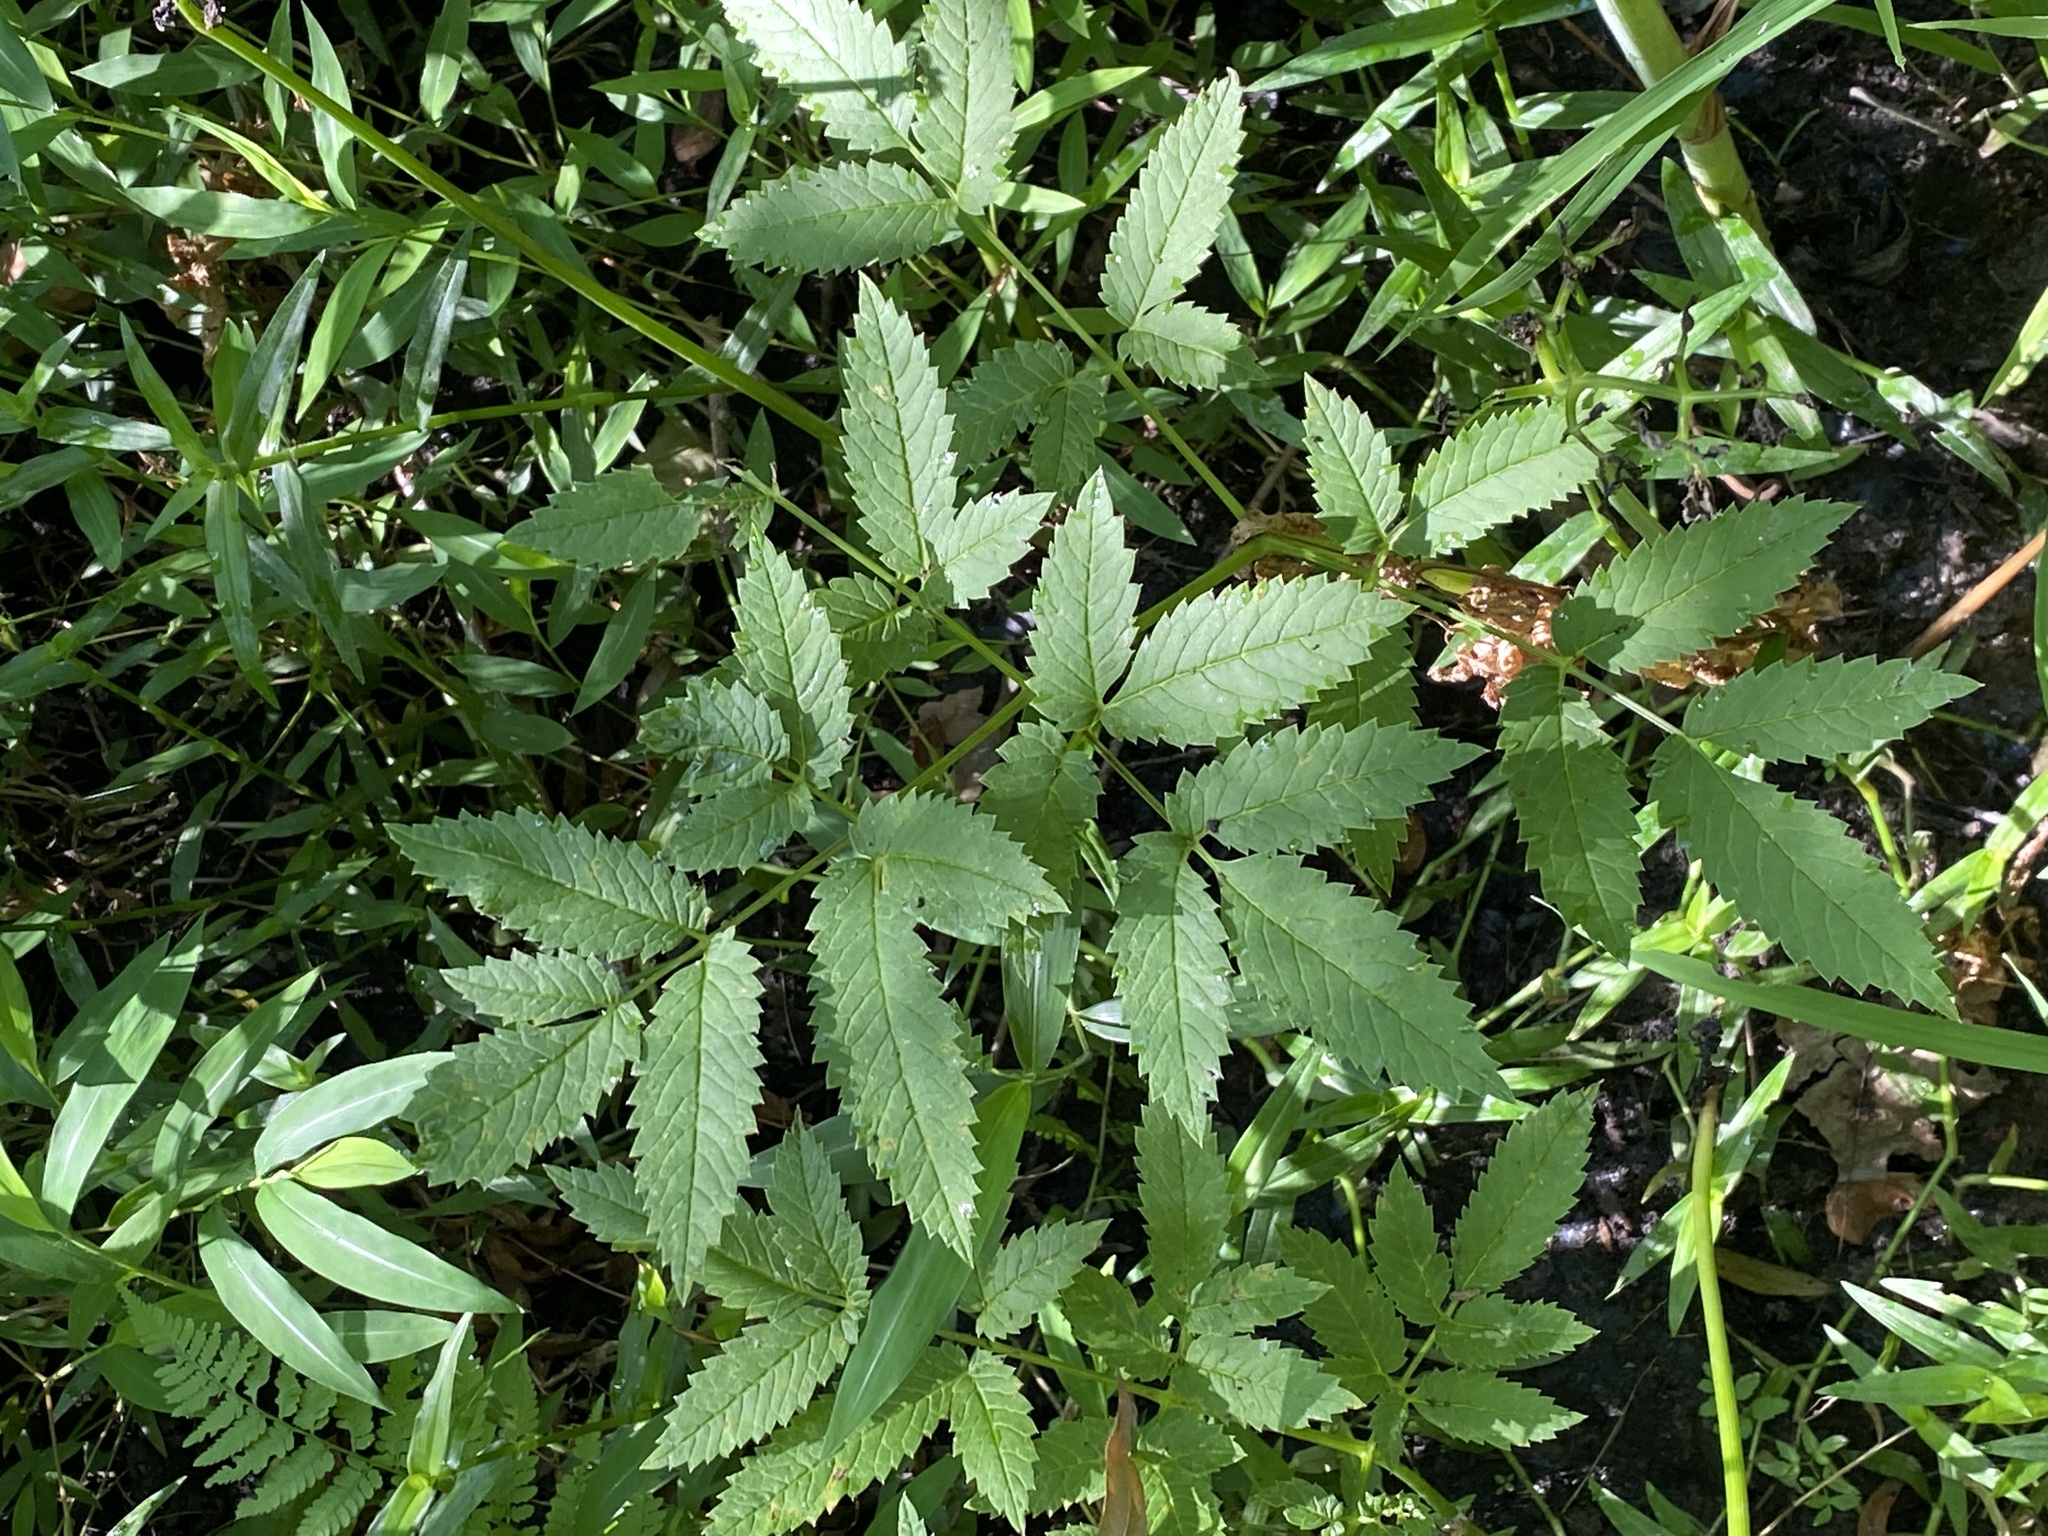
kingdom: Plantae
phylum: Tracheophyta
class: Magnoliopsida
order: Apiales
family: Apiaceae
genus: Cicuta
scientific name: Cicuta maculata
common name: Spotted cowbane
